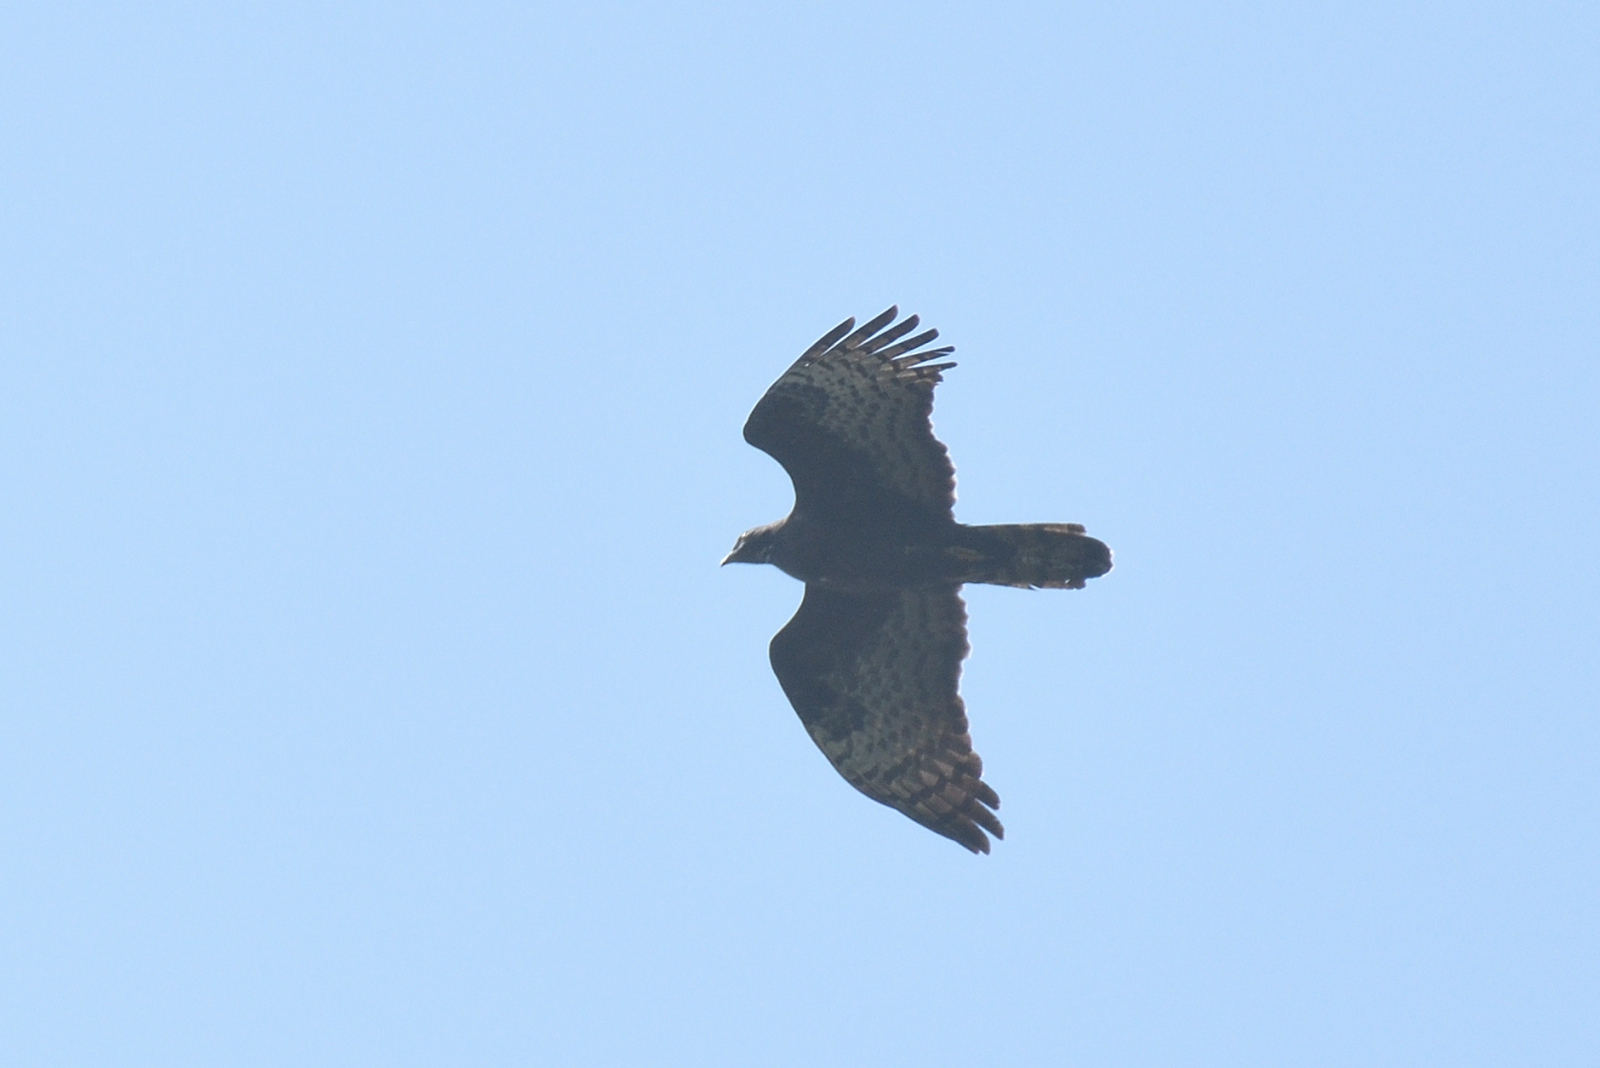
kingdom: Animalia
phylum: Chordata
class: Aves
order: Accipitriformes
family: Accipitridae
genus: Pernis
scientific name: Pernis ptilorhynchus
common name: Crested honey buzzard
